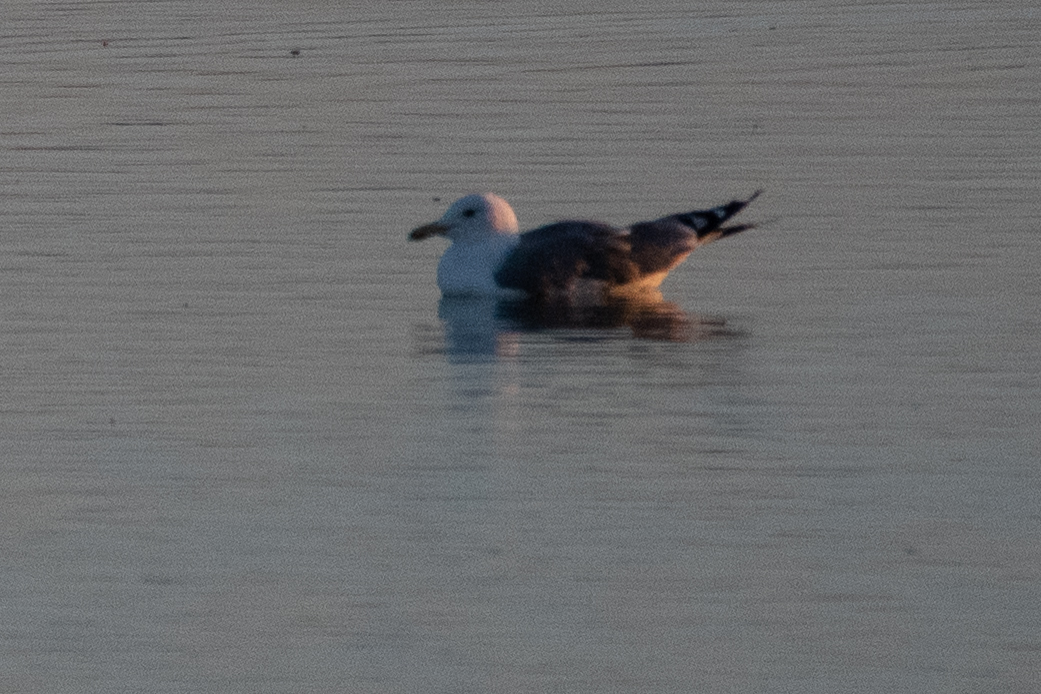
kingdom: Animalia
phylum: Chordata
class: Aves
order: Charadriiformes
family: Laridae
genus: Larus
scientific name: Larus californicus
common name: California gull
